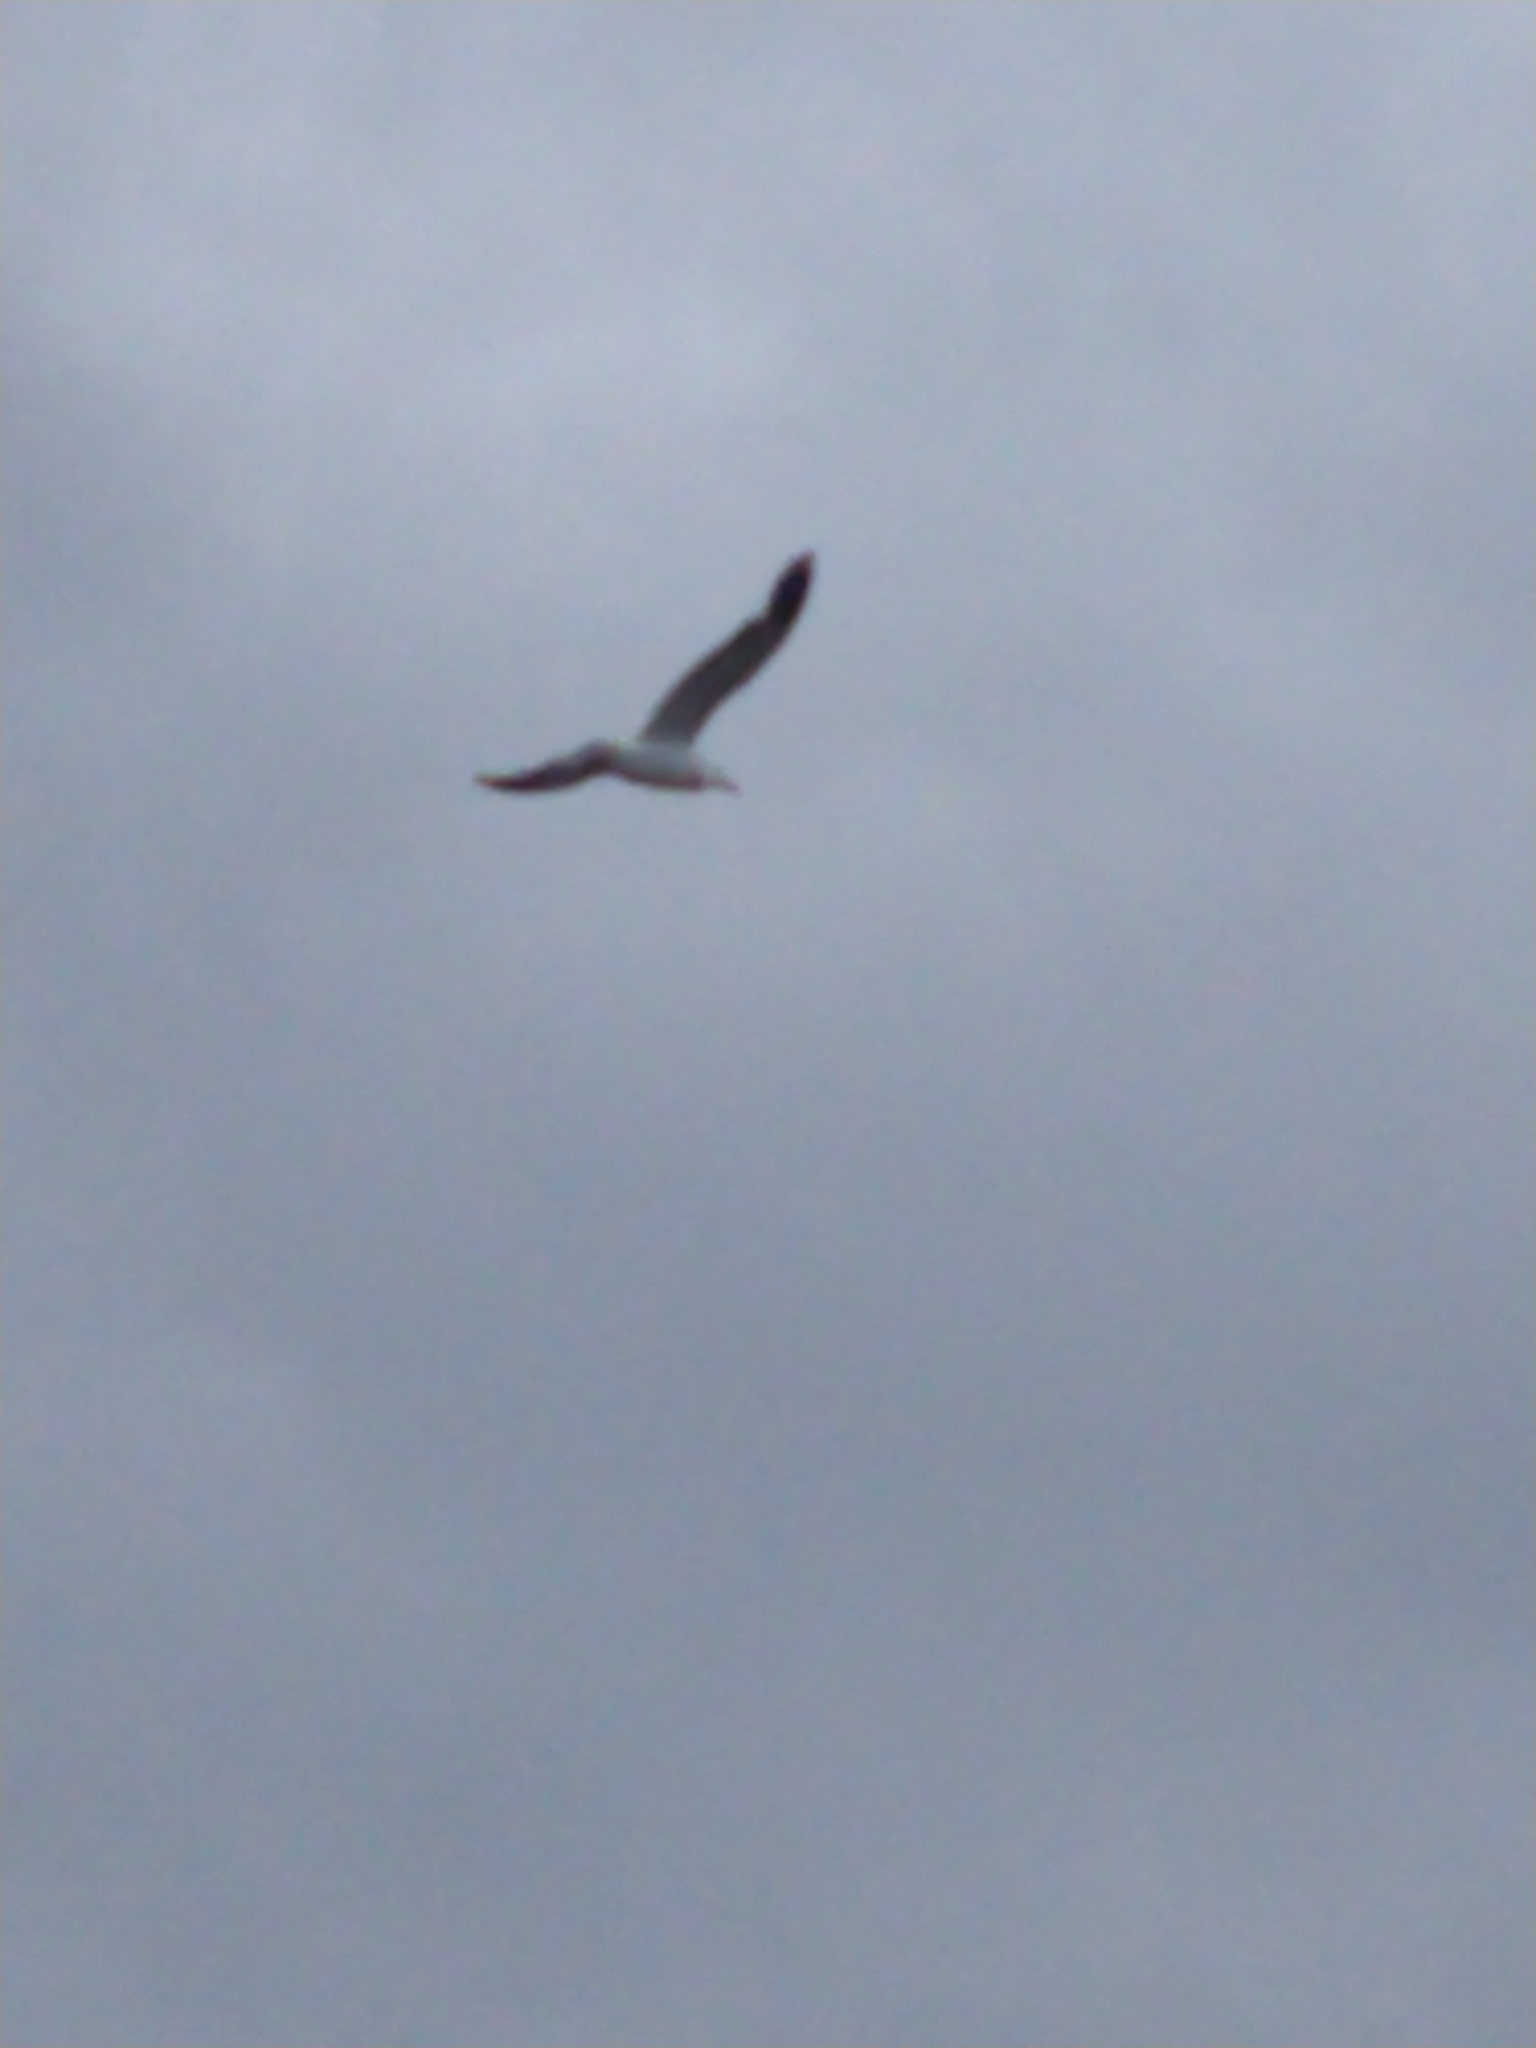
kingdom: Animalia
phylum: Chordata
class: Aves
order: Charadriiformes
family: Laridae
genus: Larus
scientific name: Larus dominicanus
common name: Kelp gull
